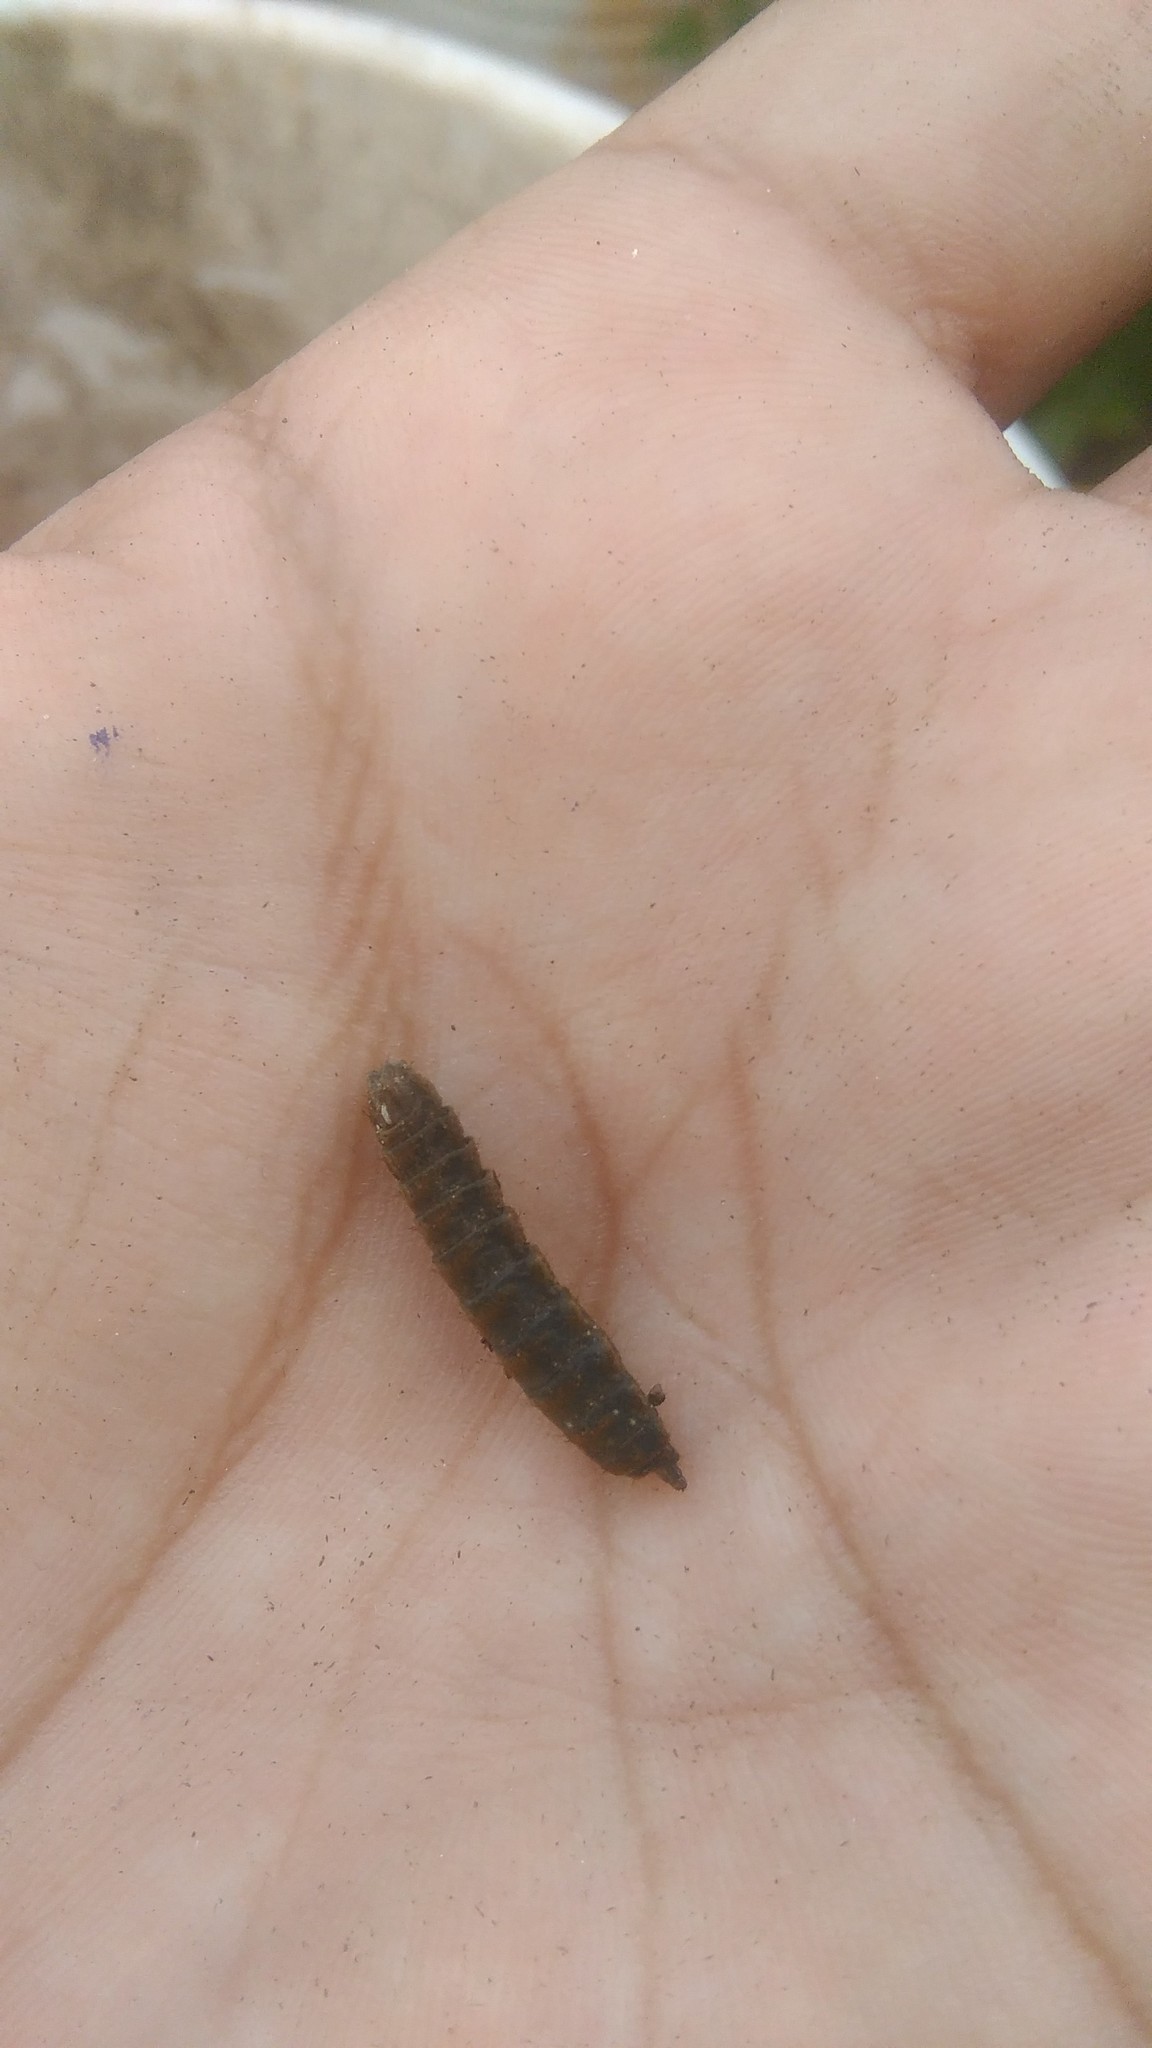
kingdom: Animalia
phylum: Arthropoda
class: Insecta
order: Diptera
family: Stratiomyidae
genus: Hermetia
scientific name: Hermetia illucens
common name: Black soldier fly
